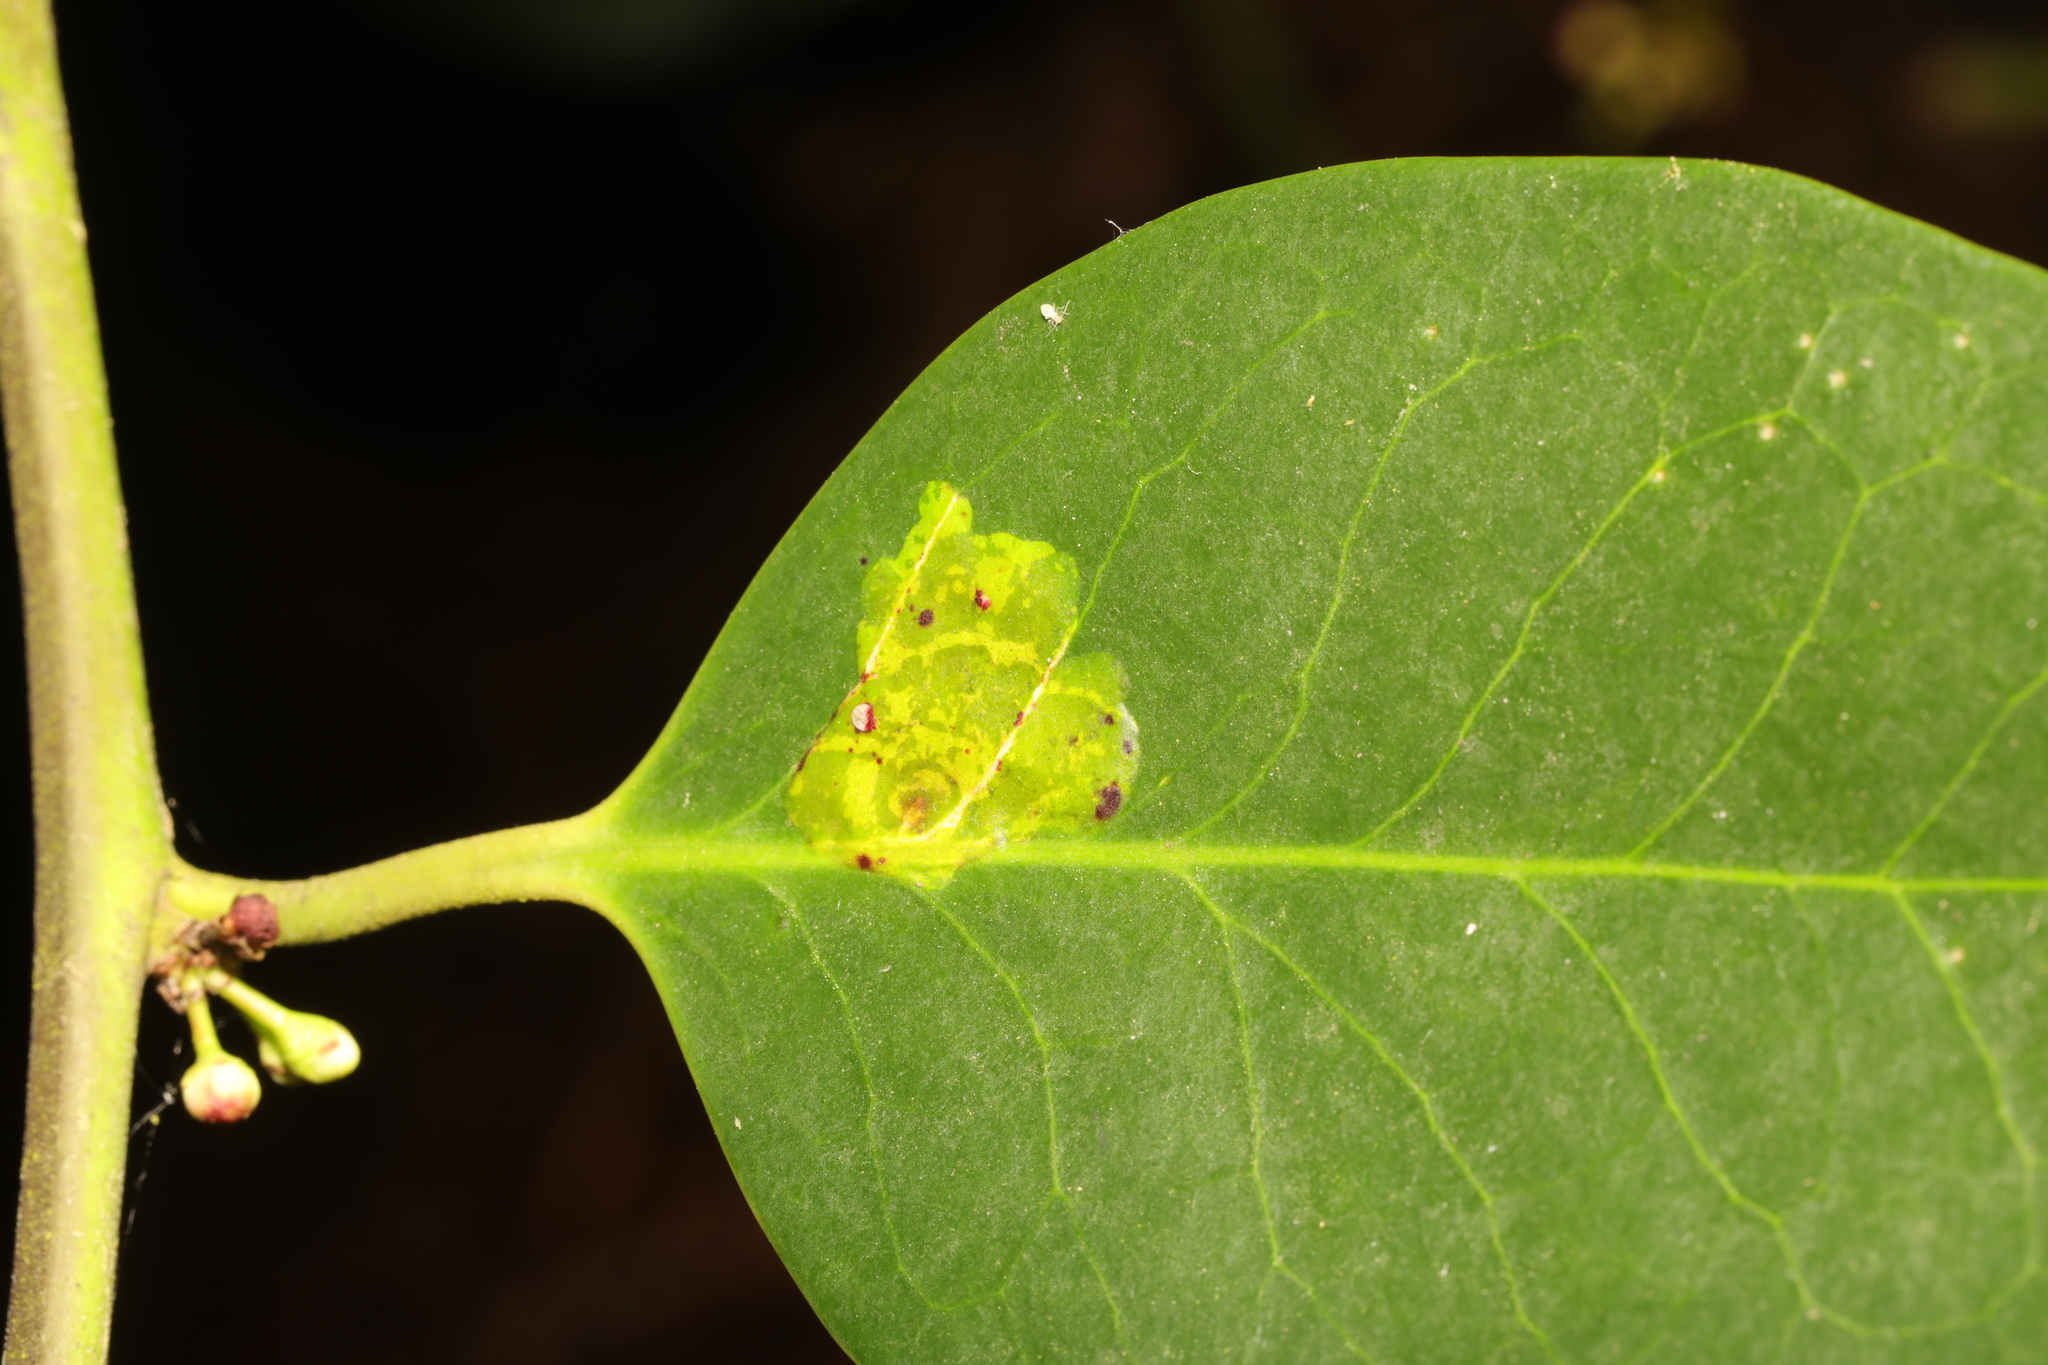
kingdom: Animalia
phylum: Arthropoda
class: Insecta
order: Diptera
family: Agromyzidae
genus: Phytomyza
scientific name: Phytomyza ilicis
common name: Holly leafminer
